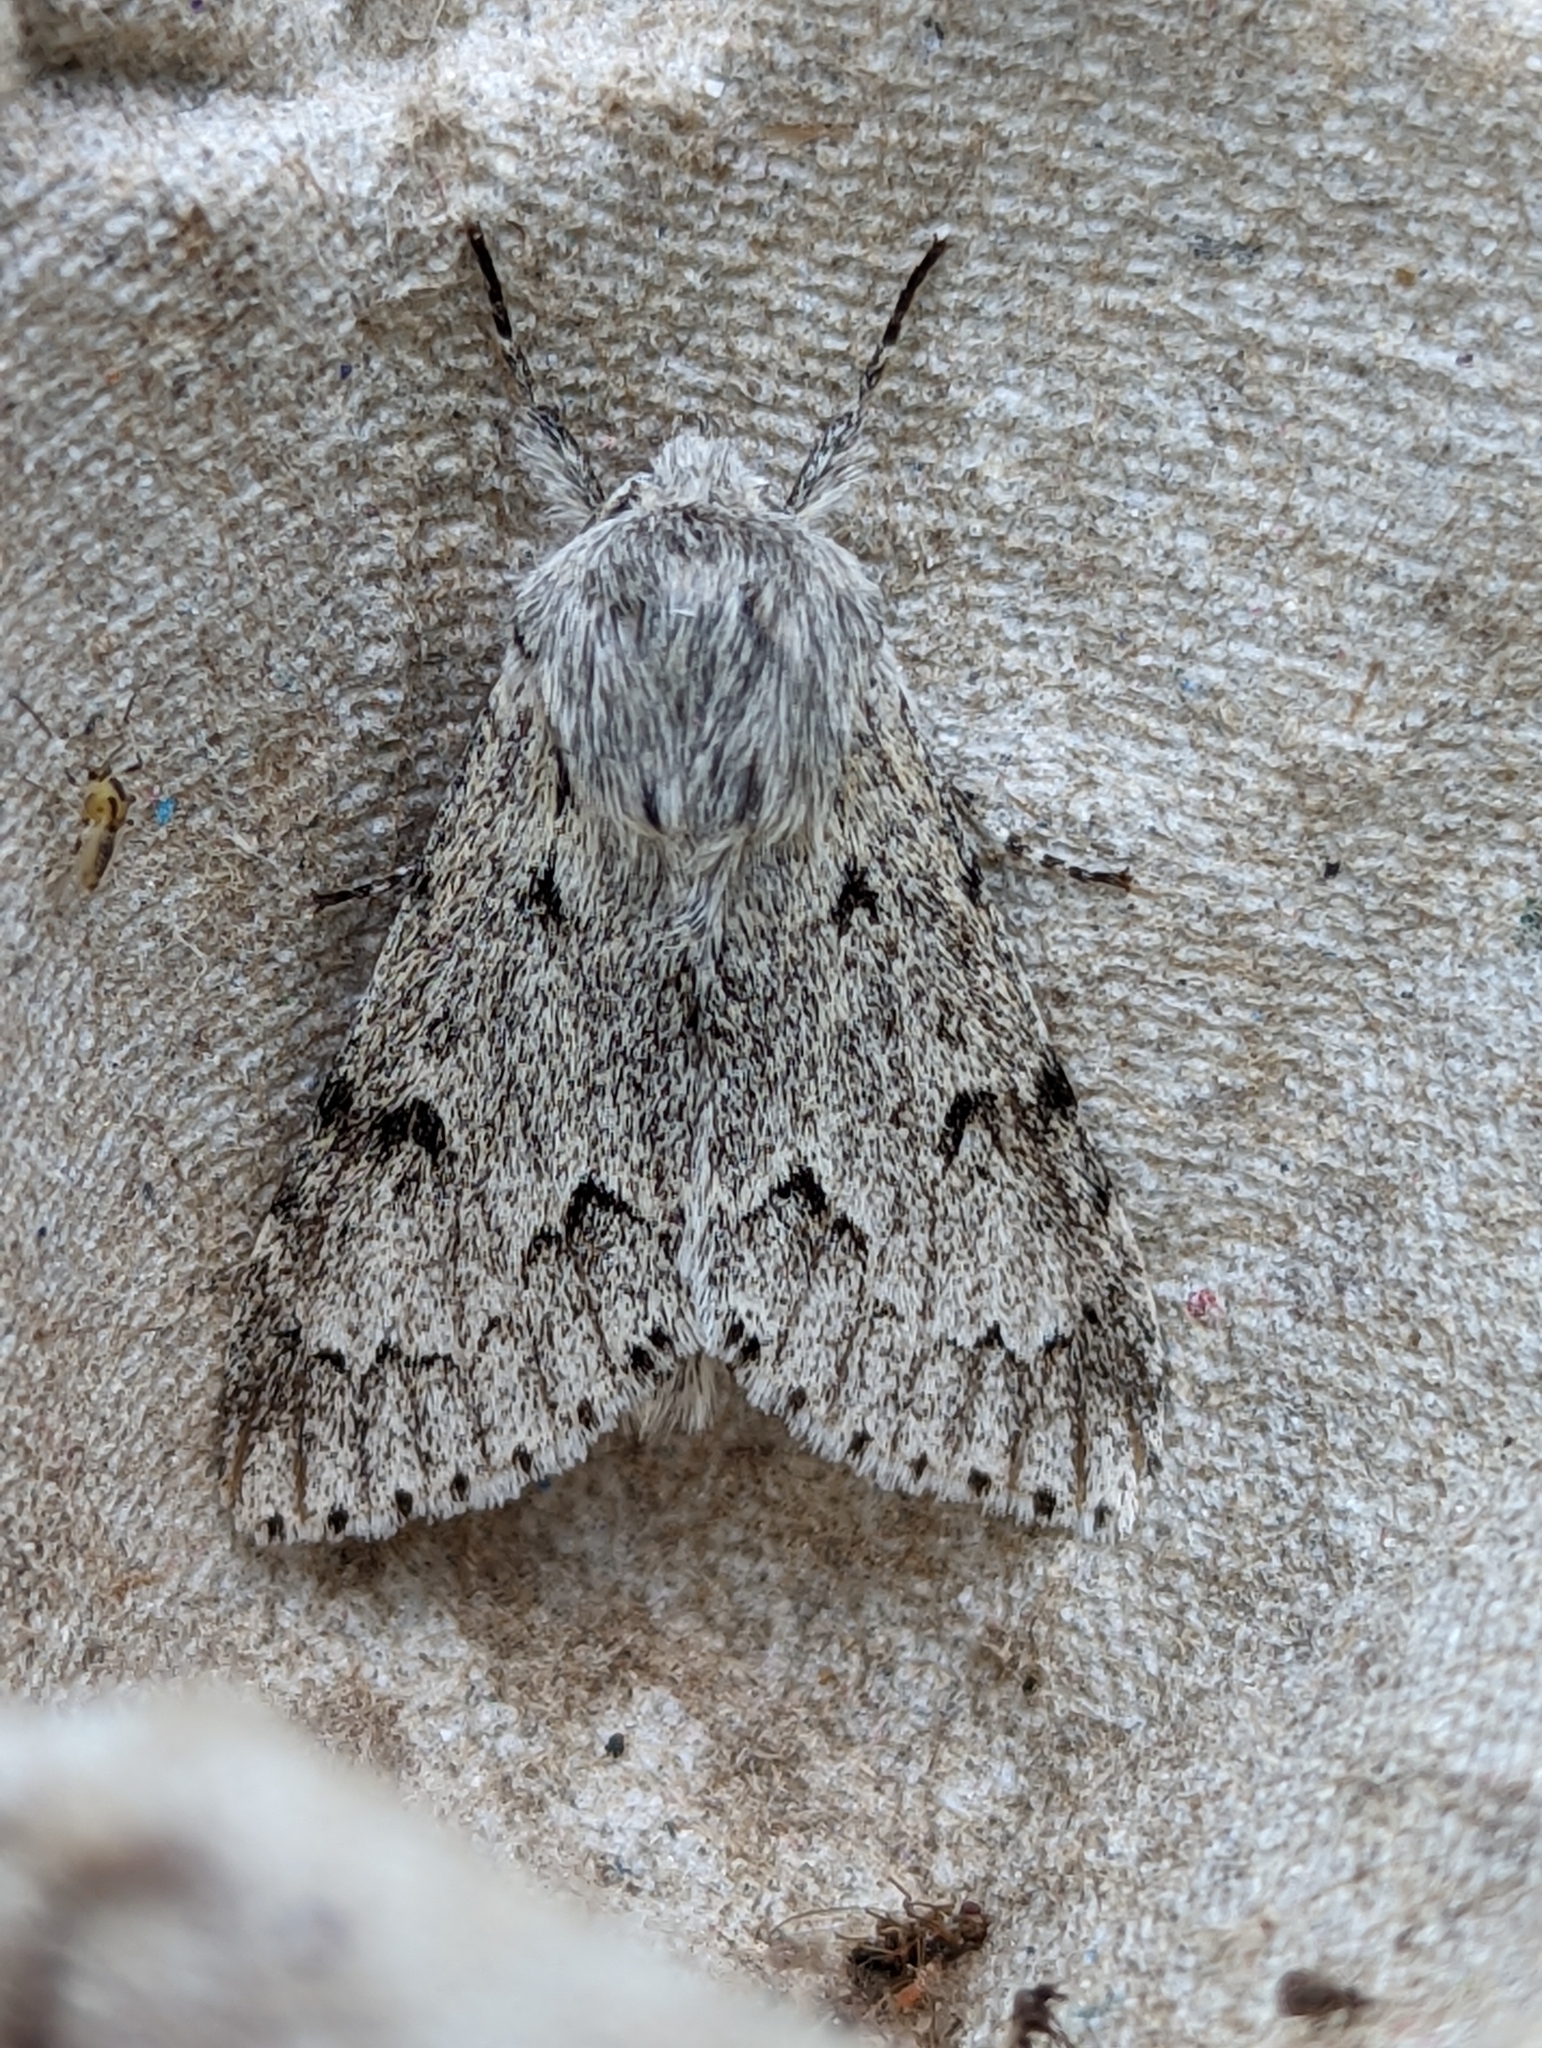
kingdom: Animalia
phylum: Arthropoda
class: Insecta
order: Lepidoptera
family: Noctuidae
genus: Acronicta
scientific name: Acronicta leporina
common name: Miller
